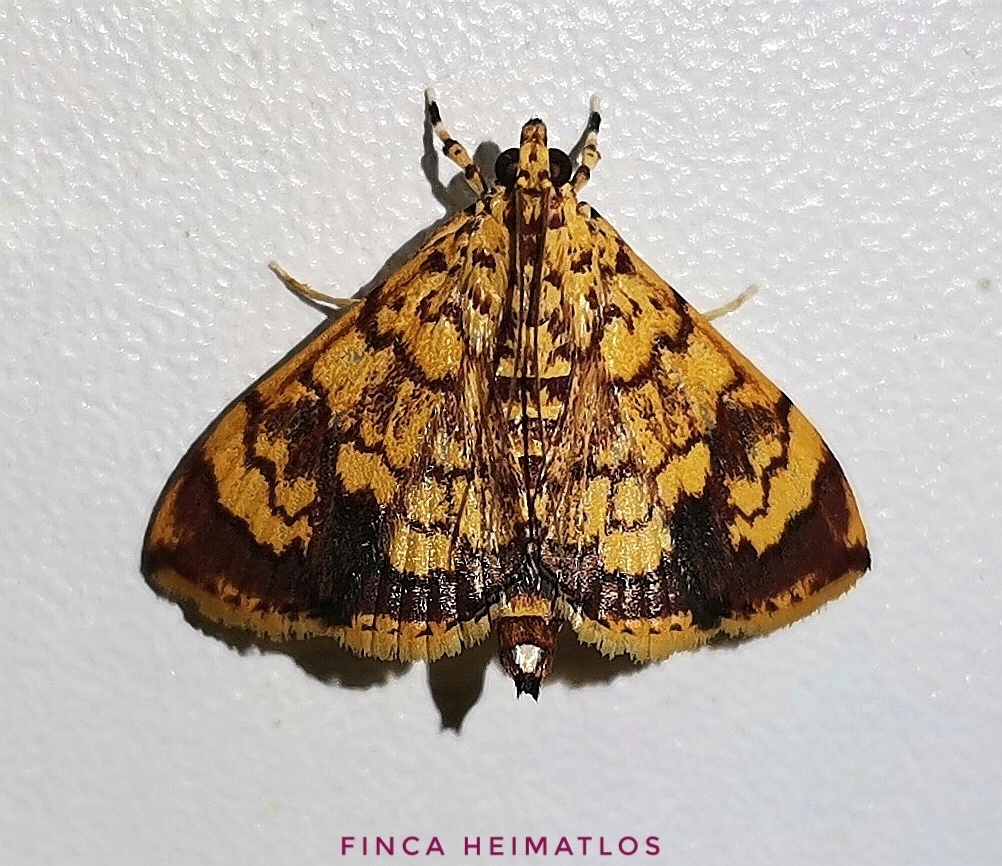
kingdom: Animalia
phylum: Arthropoda
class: Insecta
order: Lepidoptera
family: Crambidae
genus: Portentomorpha
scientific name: Portentomorpha xanthialis
